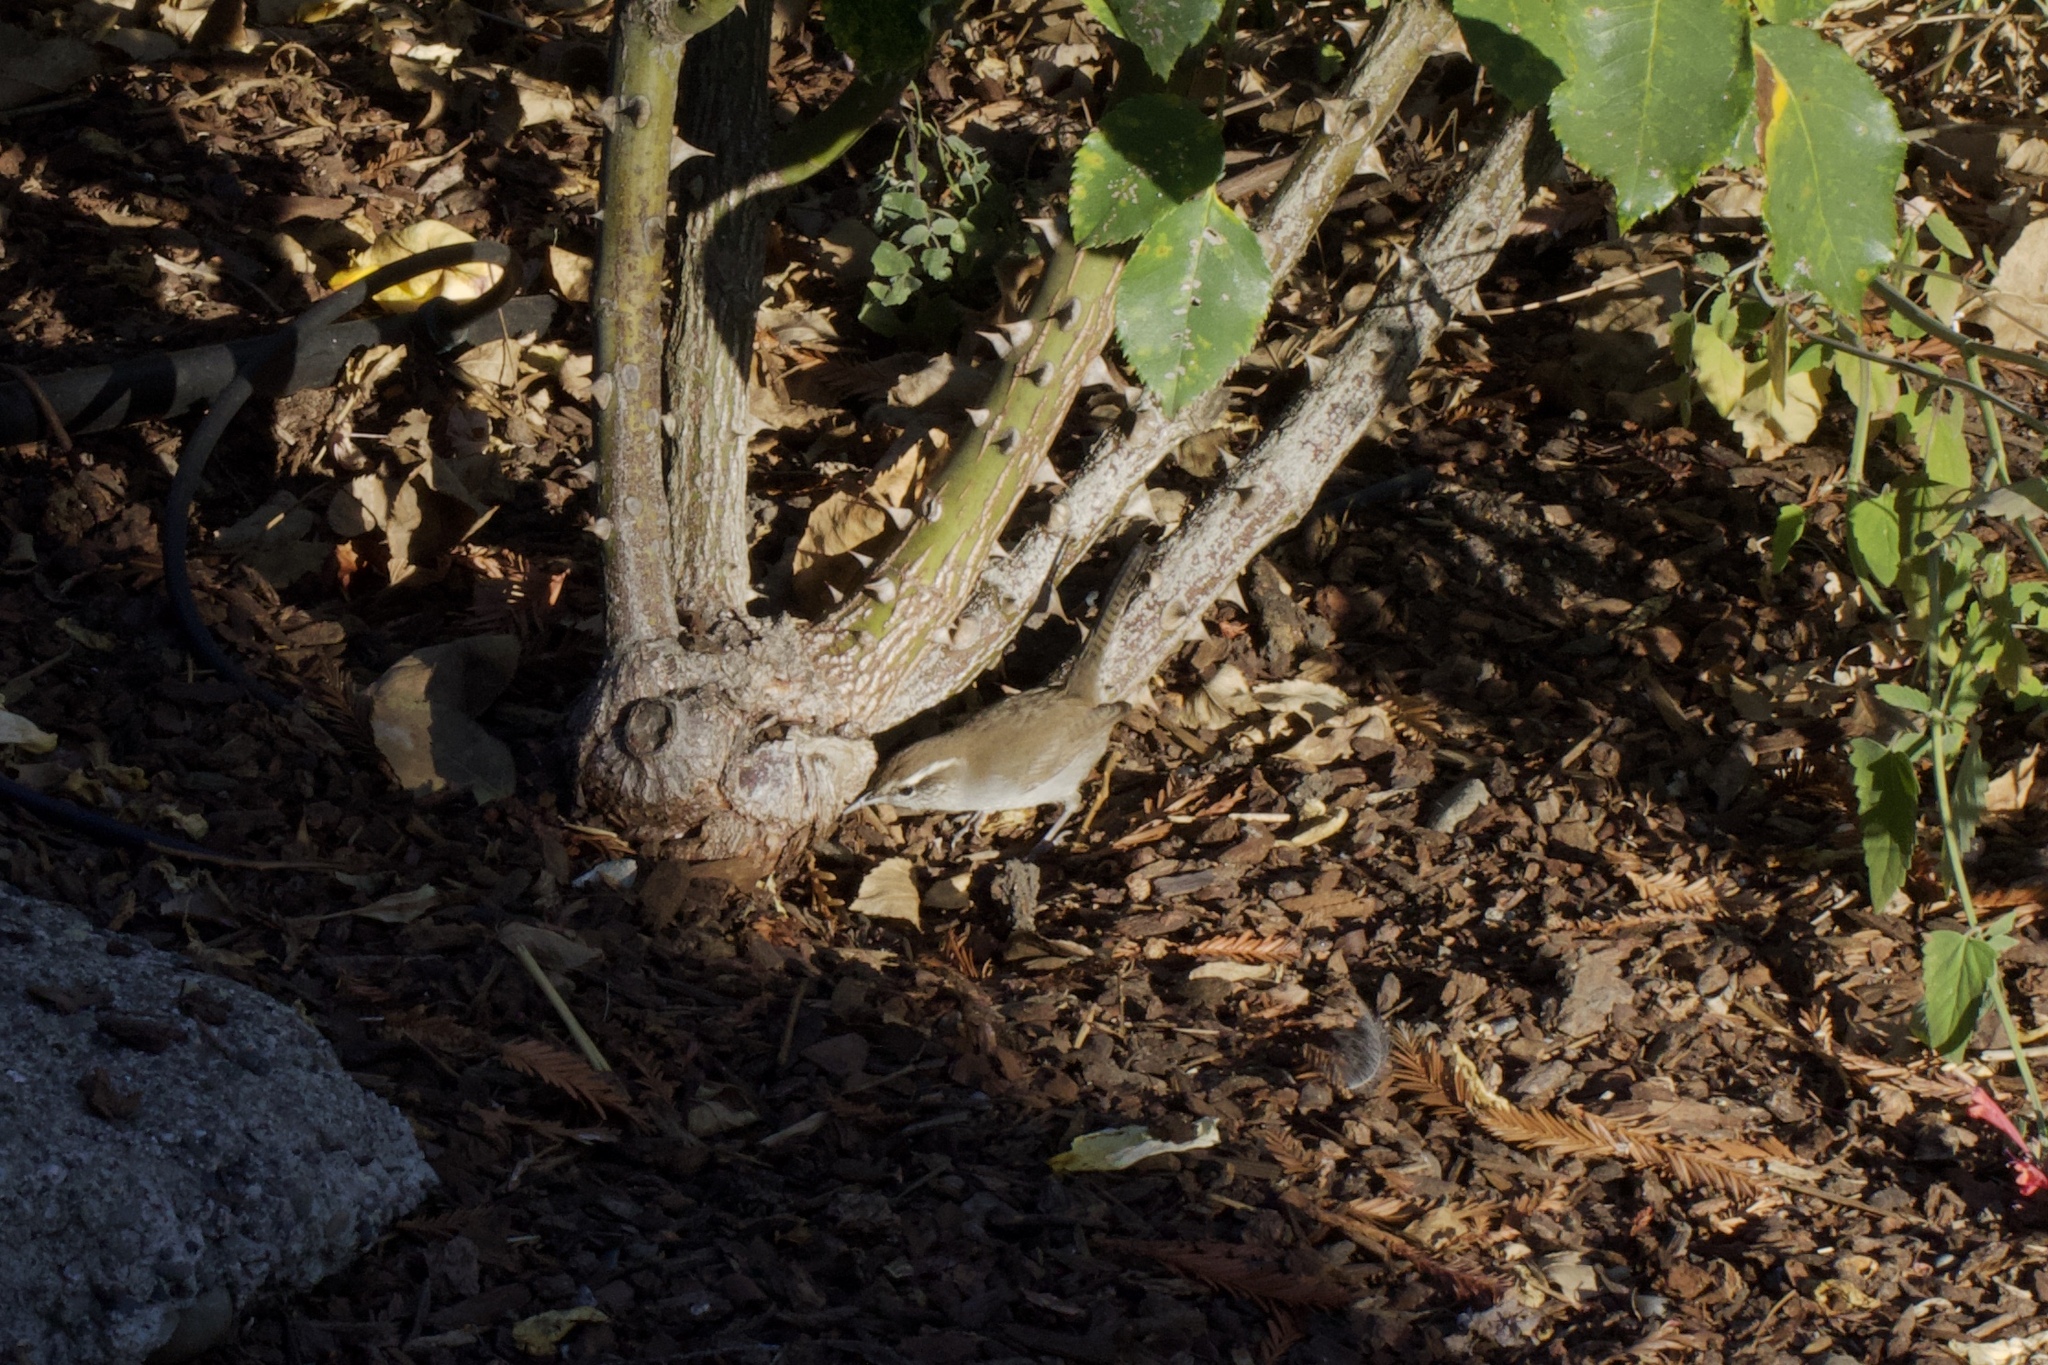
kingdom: Animalia
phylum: Chordata
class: Aves
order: Passeriformes
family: Troglodytidae
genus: Thryomanes
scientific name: Thryomanes bewickii
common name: Bewick's wren
